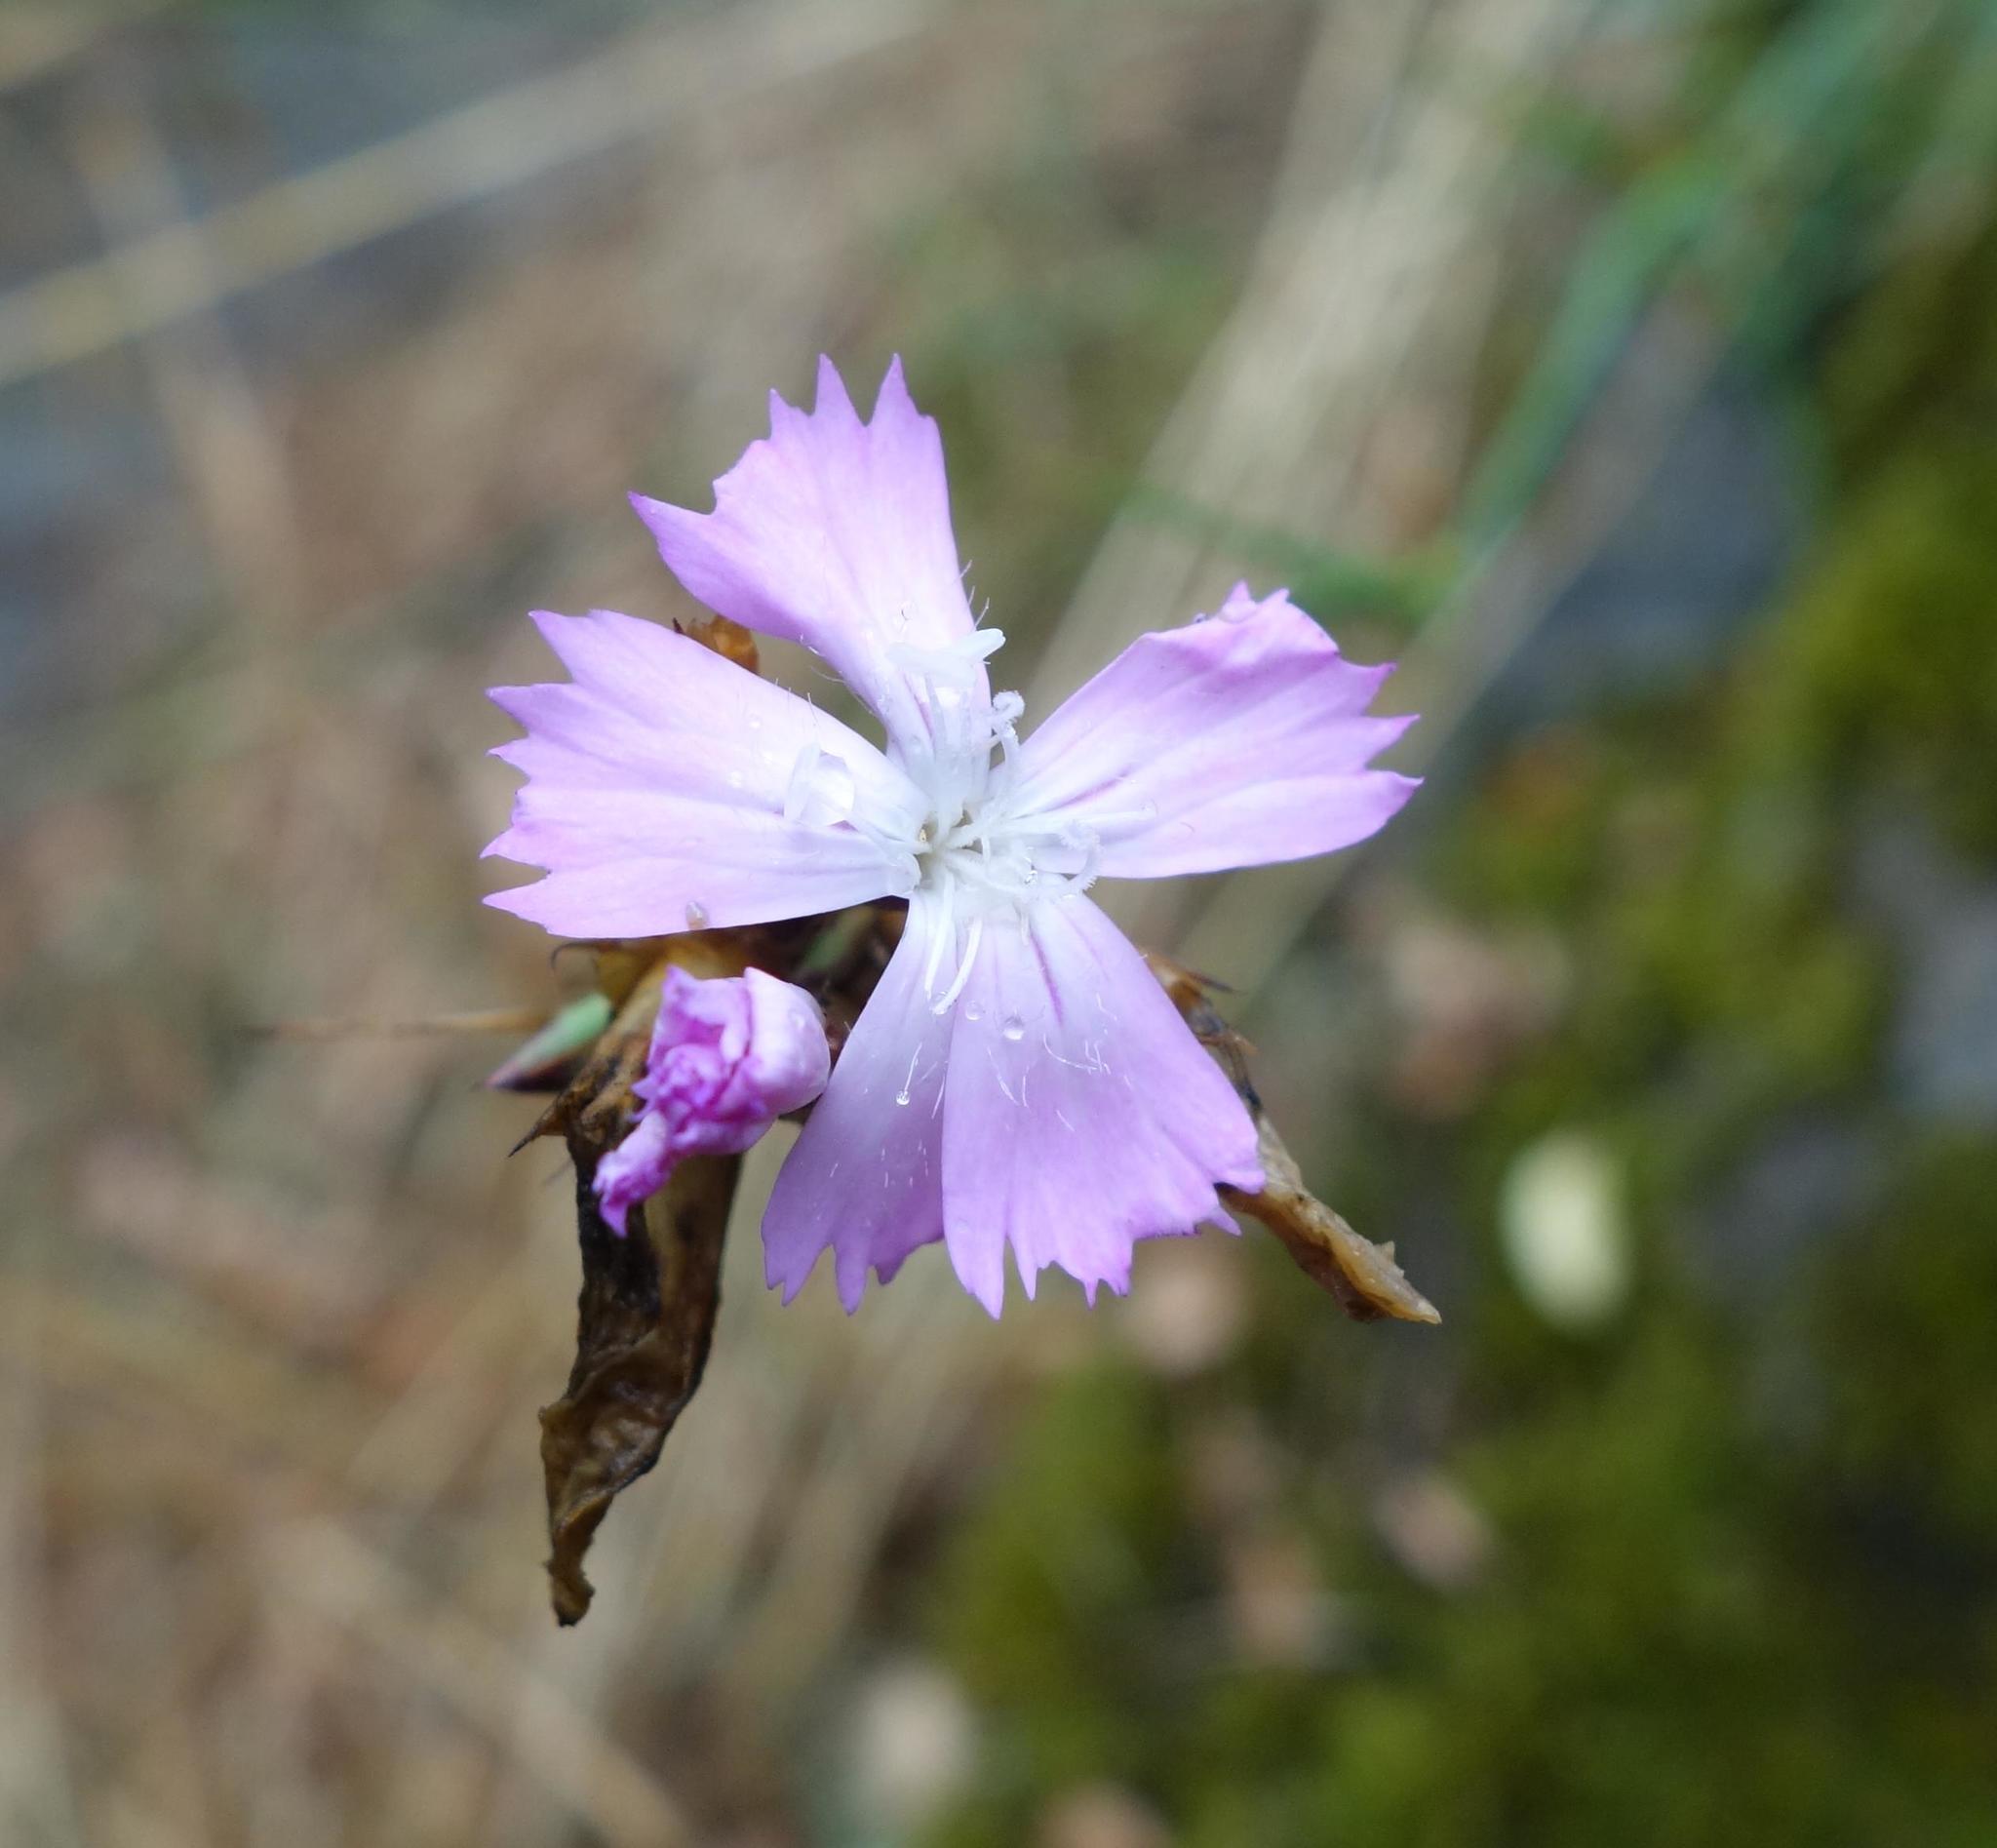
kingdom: Plantae
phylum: Tracheophyta
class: Magnoliopsida
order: Caryophyllales
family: Caryophyllaceae
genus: Dianthus
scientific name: Dianthus carthusianorum
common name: Carthusian pink
